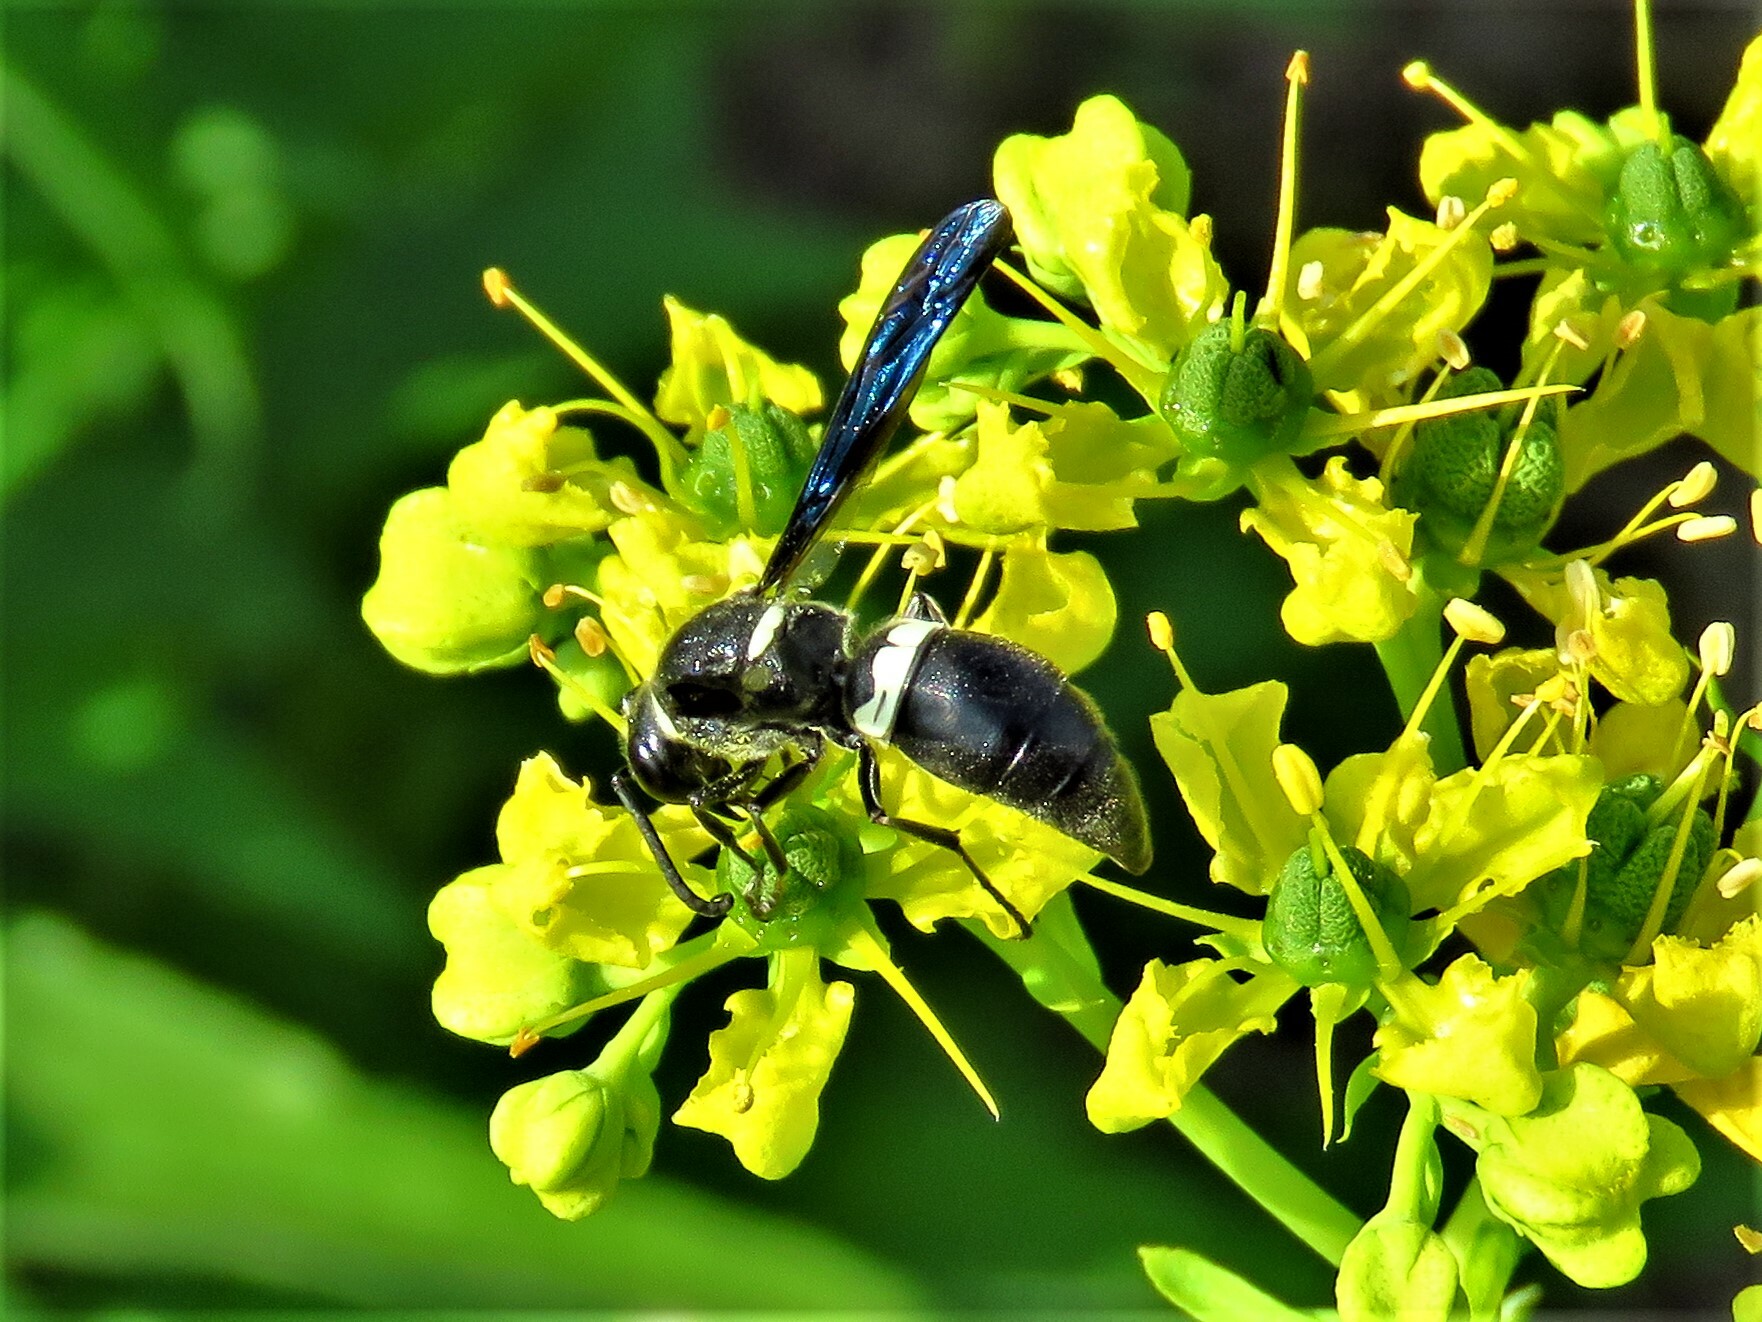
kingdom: Animalia
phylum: Arthropoda
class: Insecta
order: Hymenoptera
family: Eumenidae
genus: Monobia
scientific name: Monobia quadridens
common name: Four-toothed mason wasp
